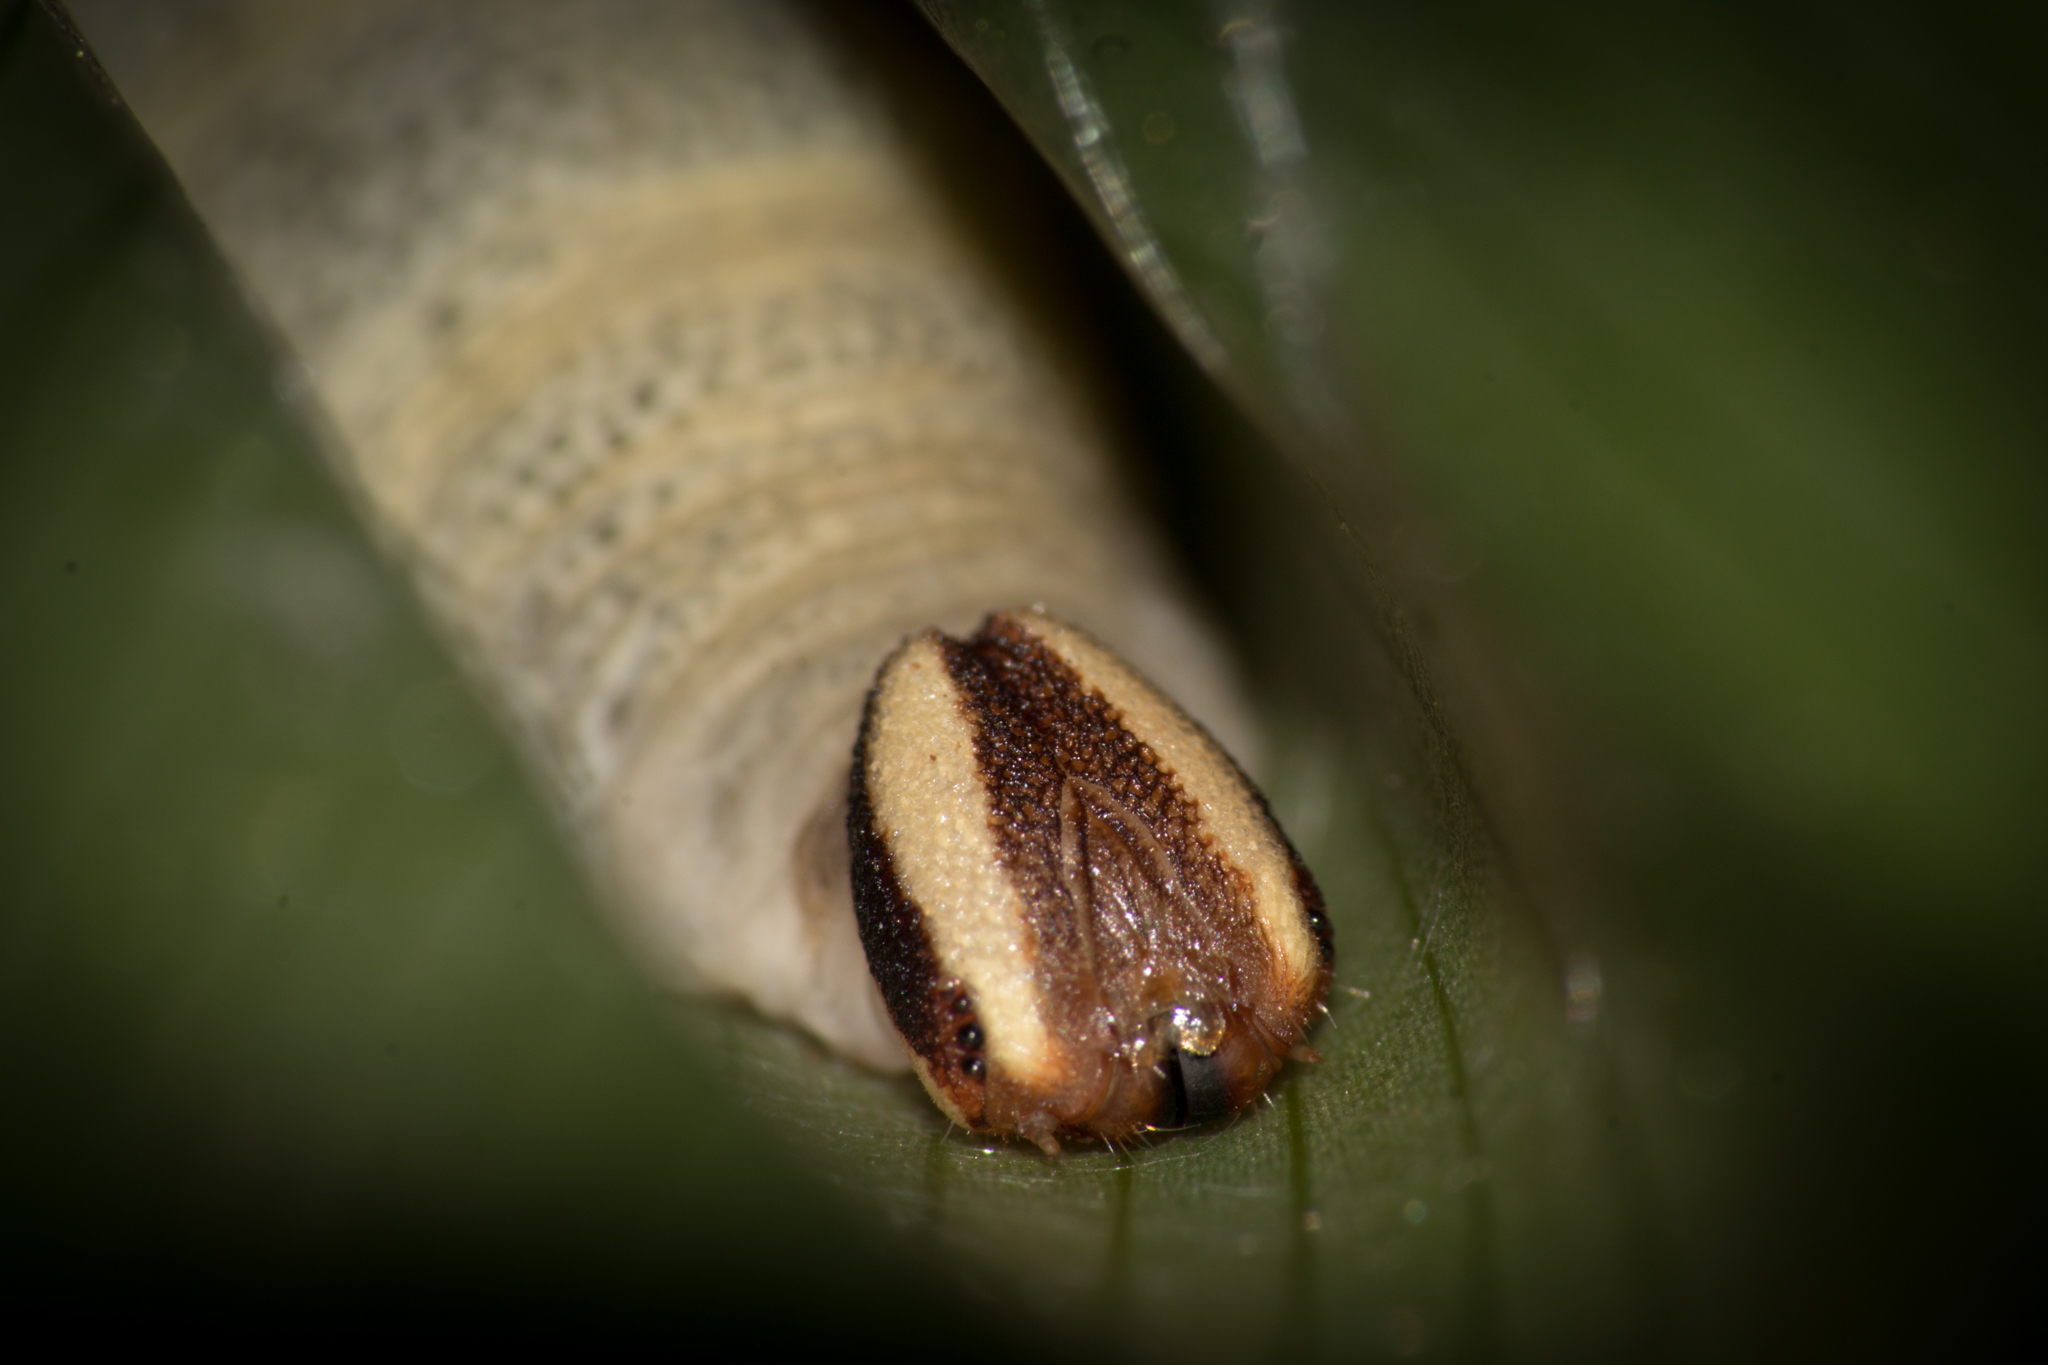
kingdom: Animalia
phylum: Arthropoda
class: Insecta
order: Lepidoptera
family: Hesperiidae
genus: Quinta
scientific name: Quinta cannae
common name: Canna skipper
